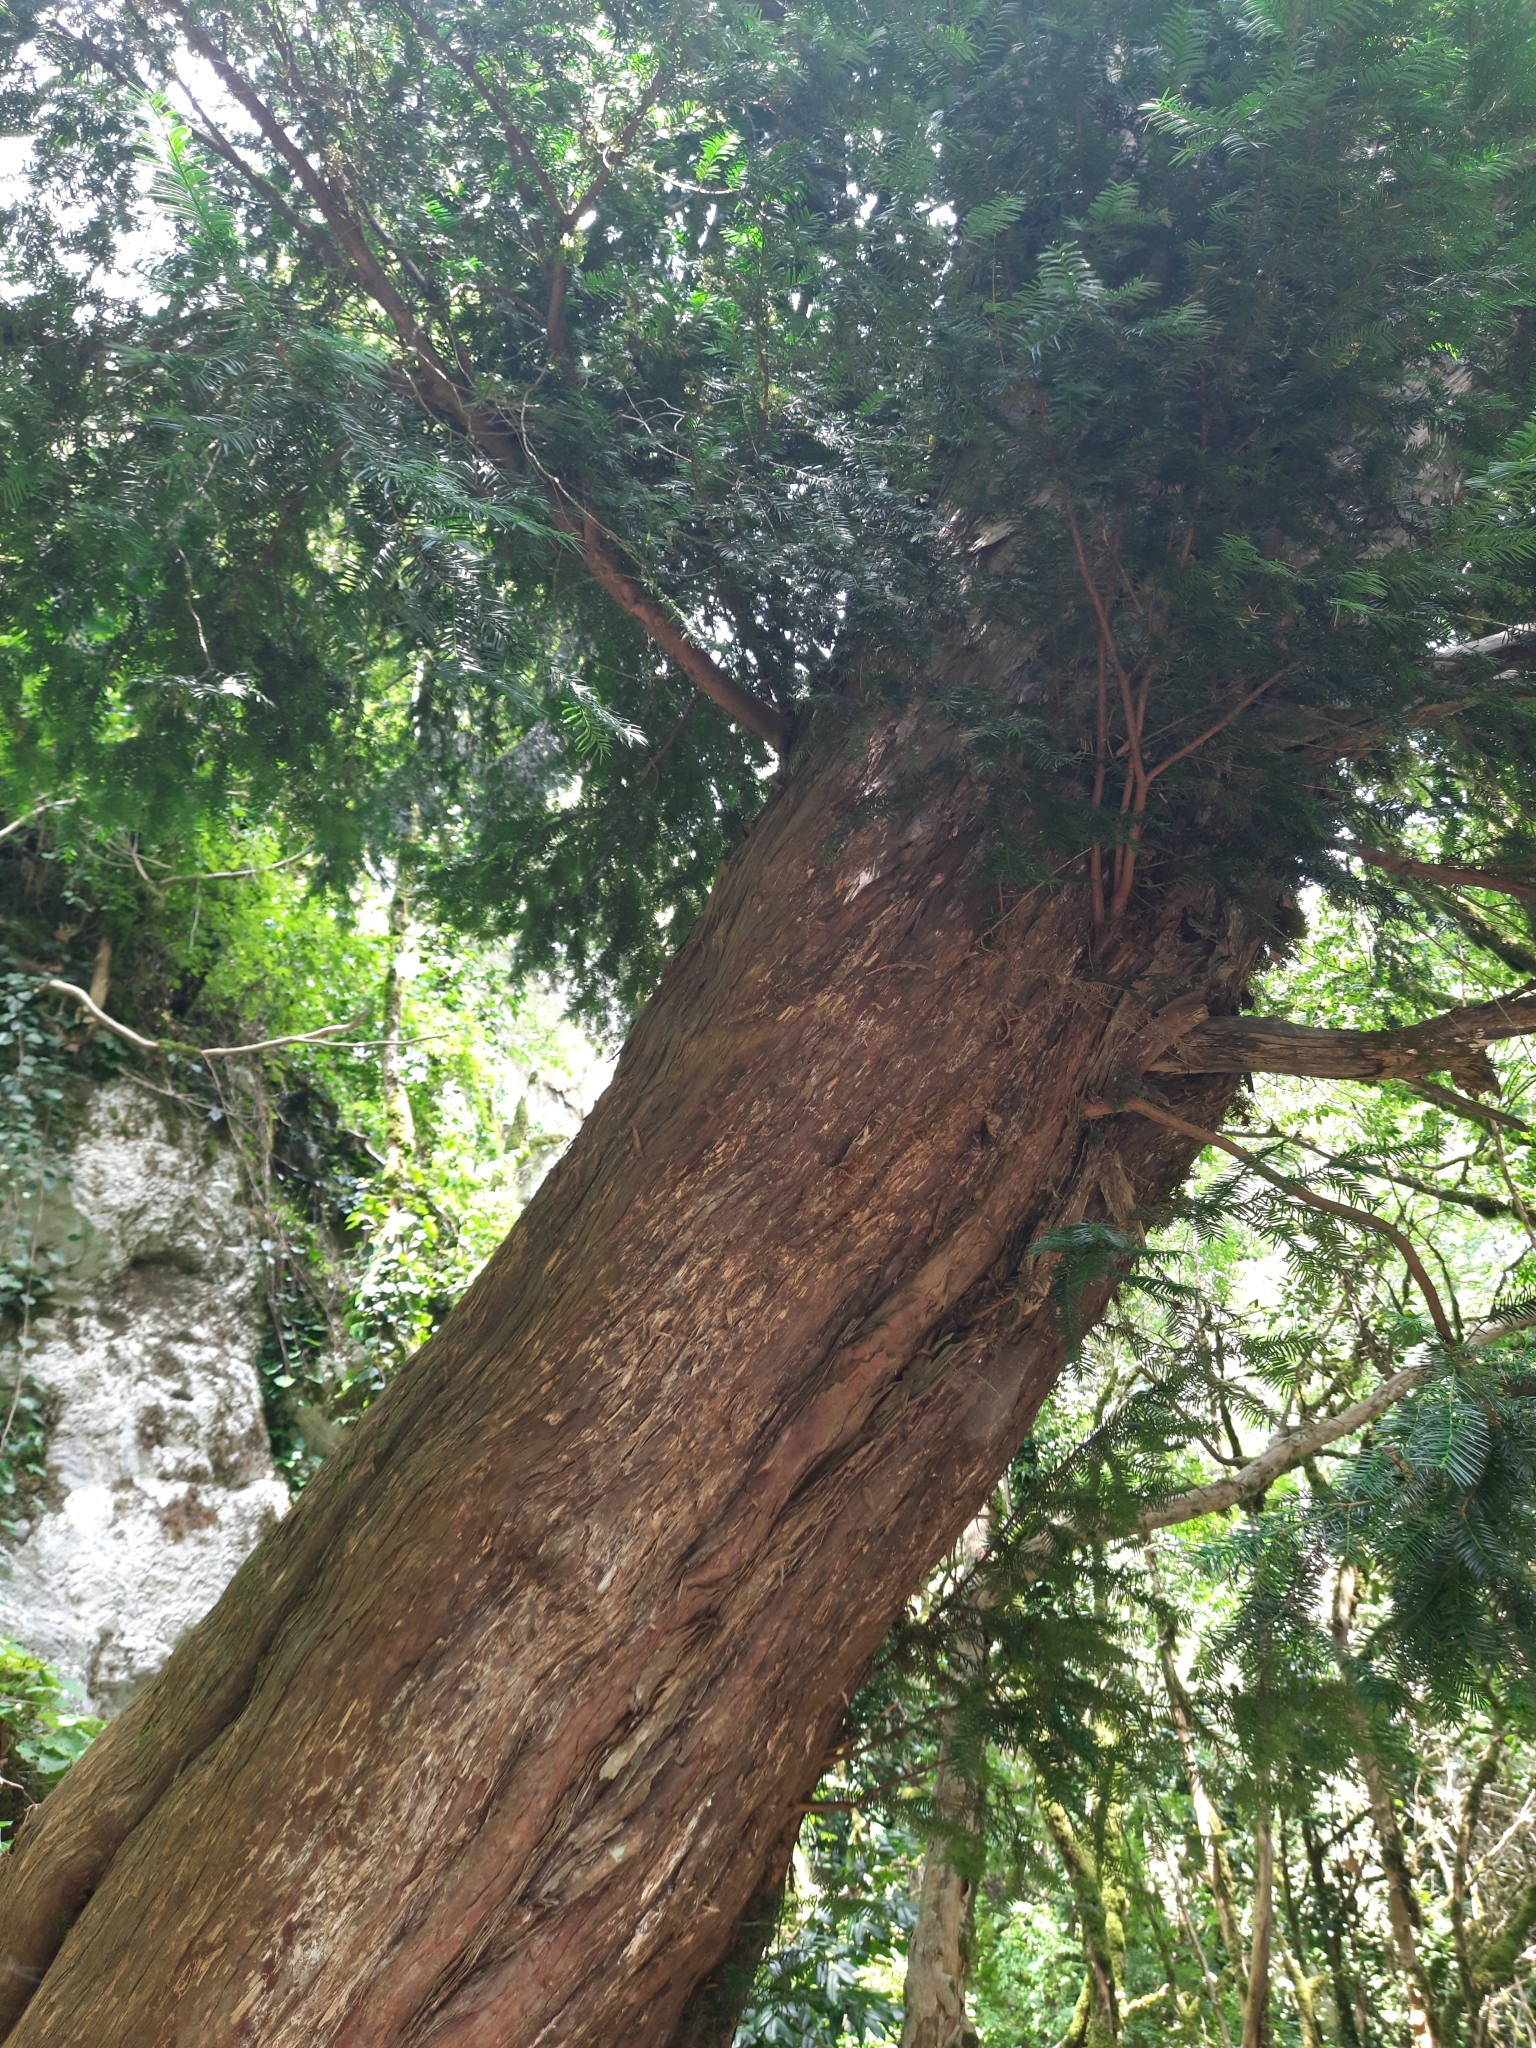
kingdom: Plantae
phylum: Tracheophyta
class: Pinopsida
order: Pinales
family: Taxaceae
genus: Taxus
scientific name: Taxus baccata
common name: Yew
